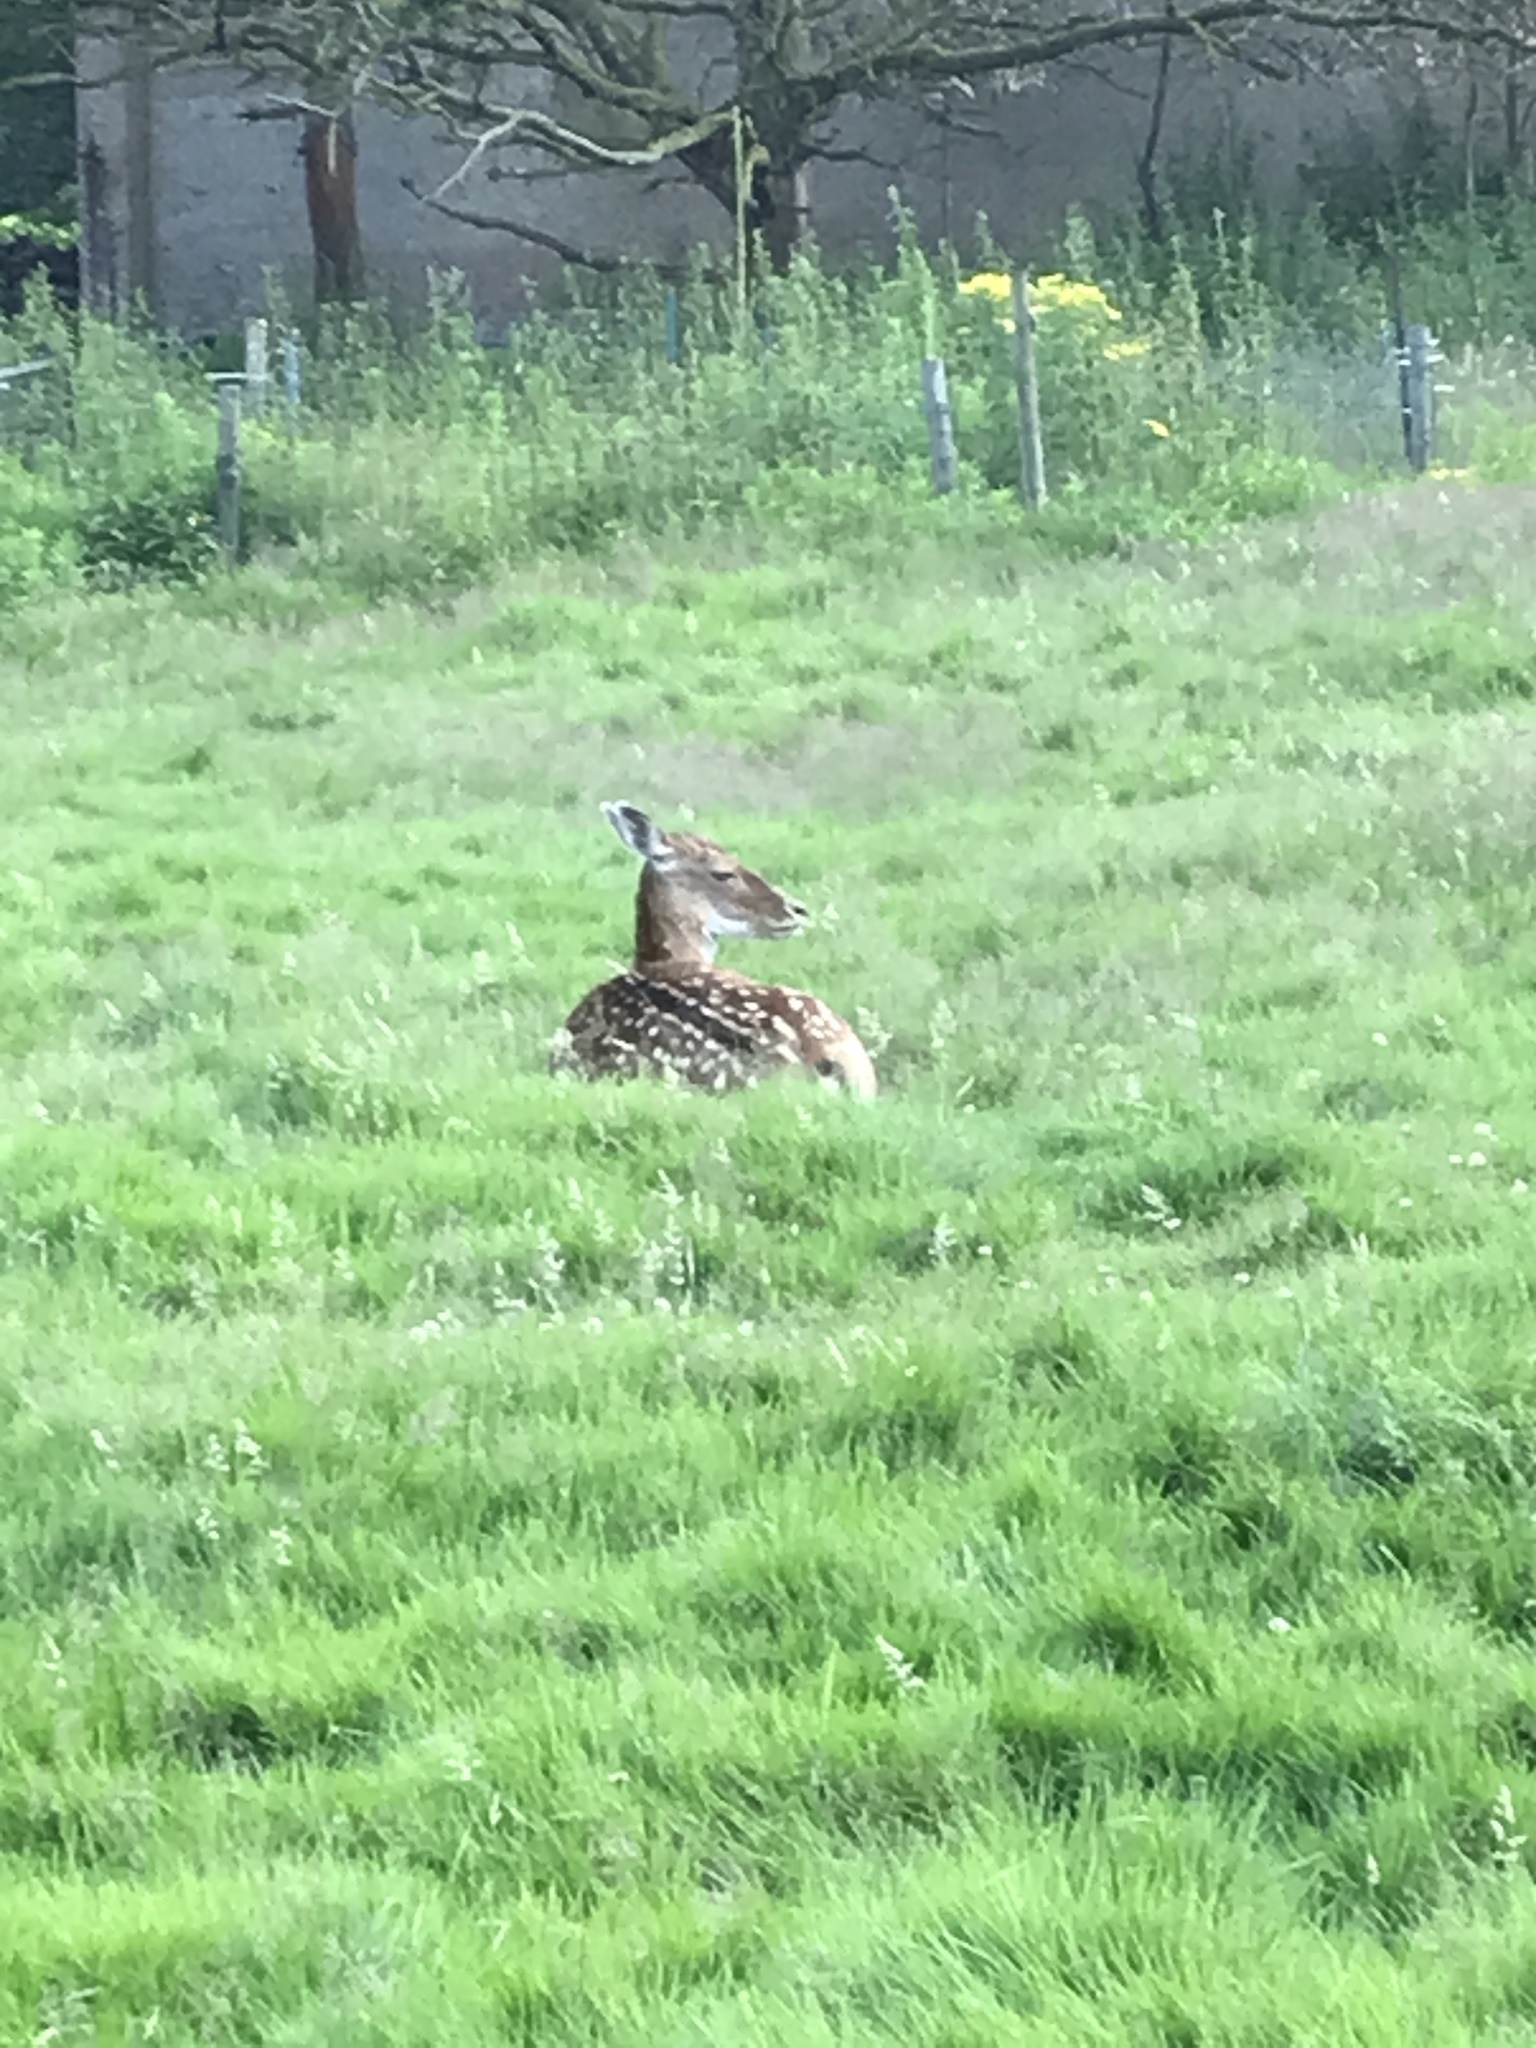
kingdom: Animalia
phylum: Chordata
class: Mammalia
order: Artiodactyla
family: Cervidae
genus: Dama
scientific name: Dama dama
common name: Fallow deer
